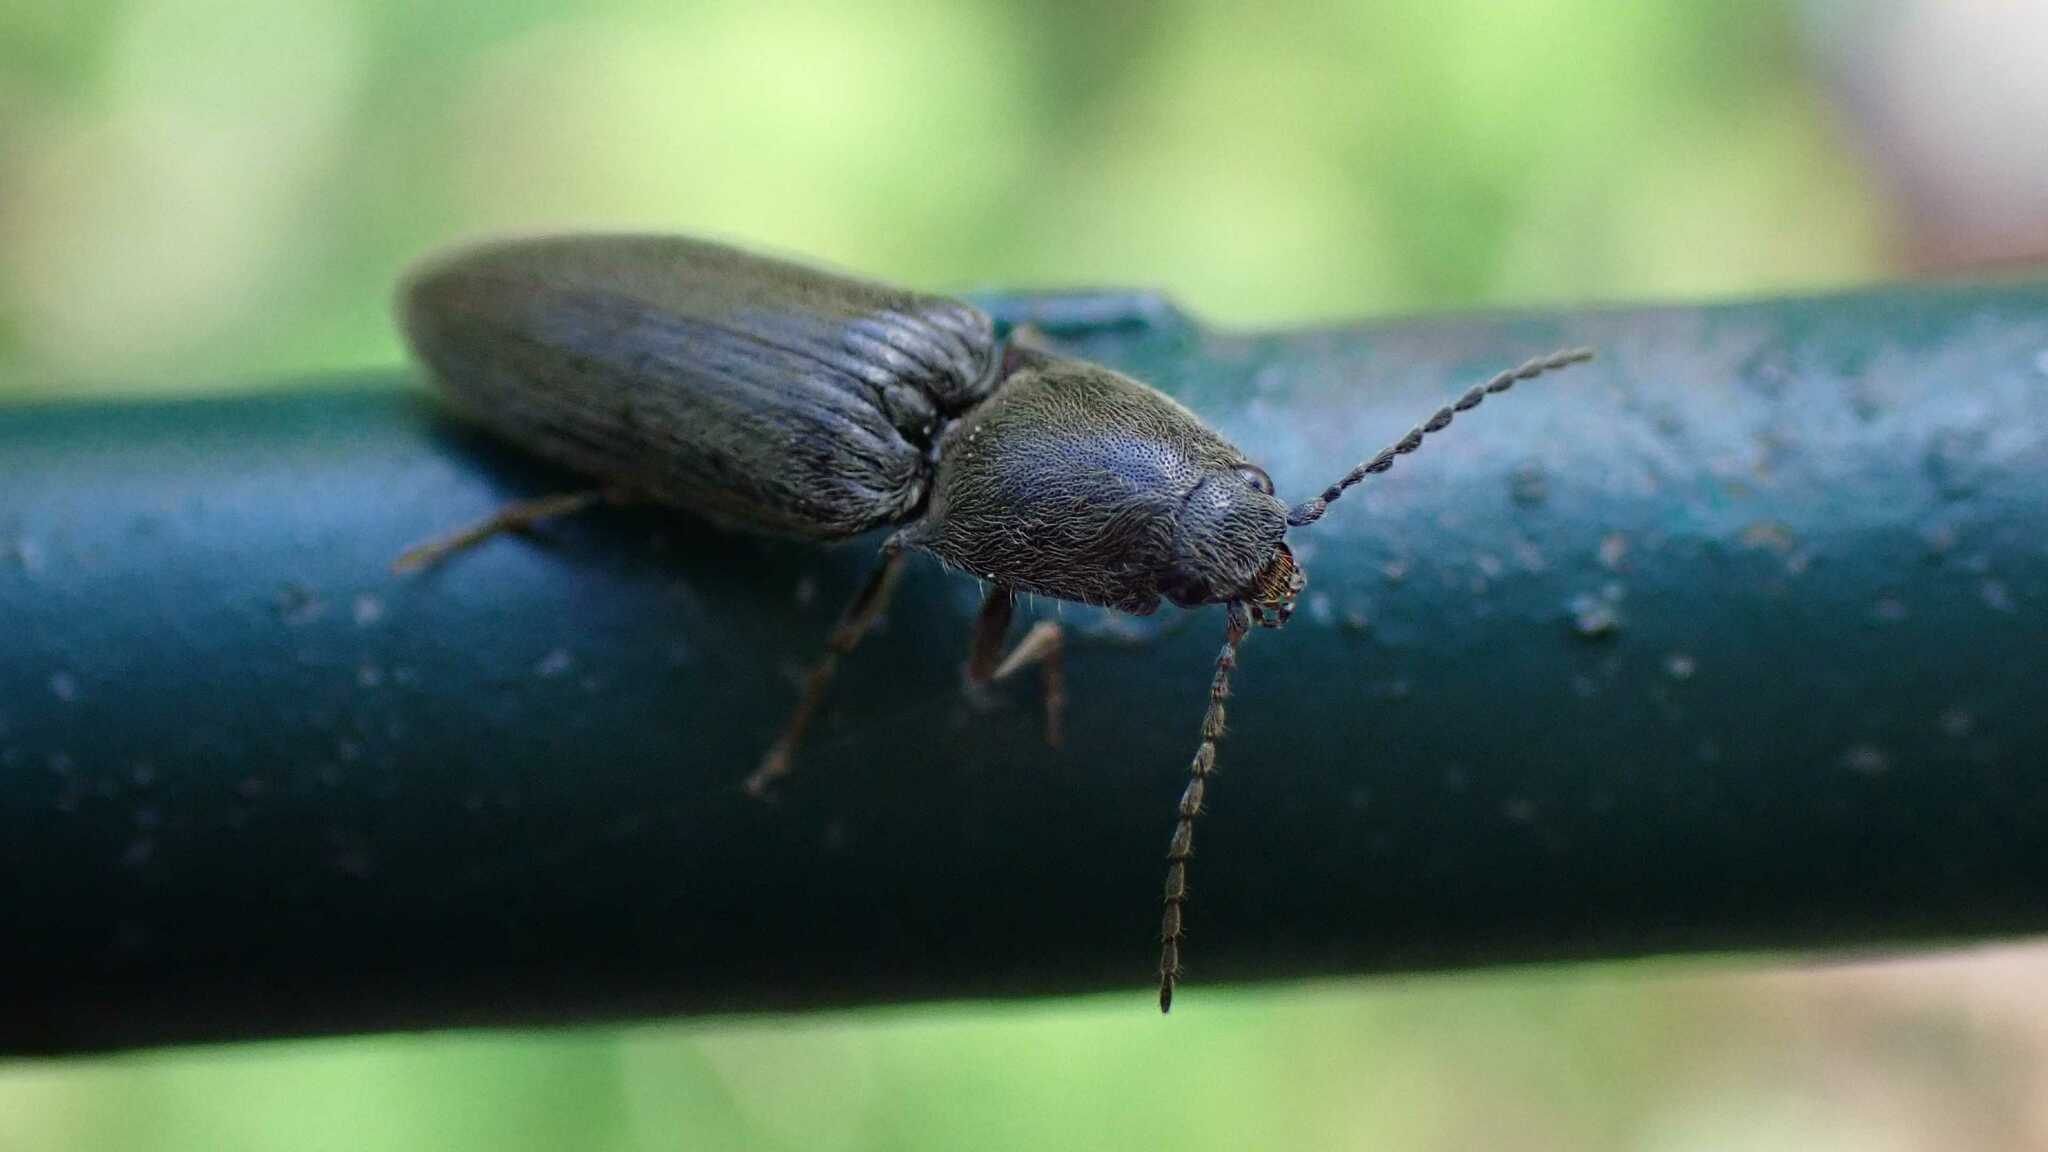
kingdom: Animalia
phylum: Arthropoda
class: Insecta
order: Coleoptera
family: Elateridae
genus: Athous
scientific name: Athous haemorrhoidalis
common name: Red-brown click beetle
